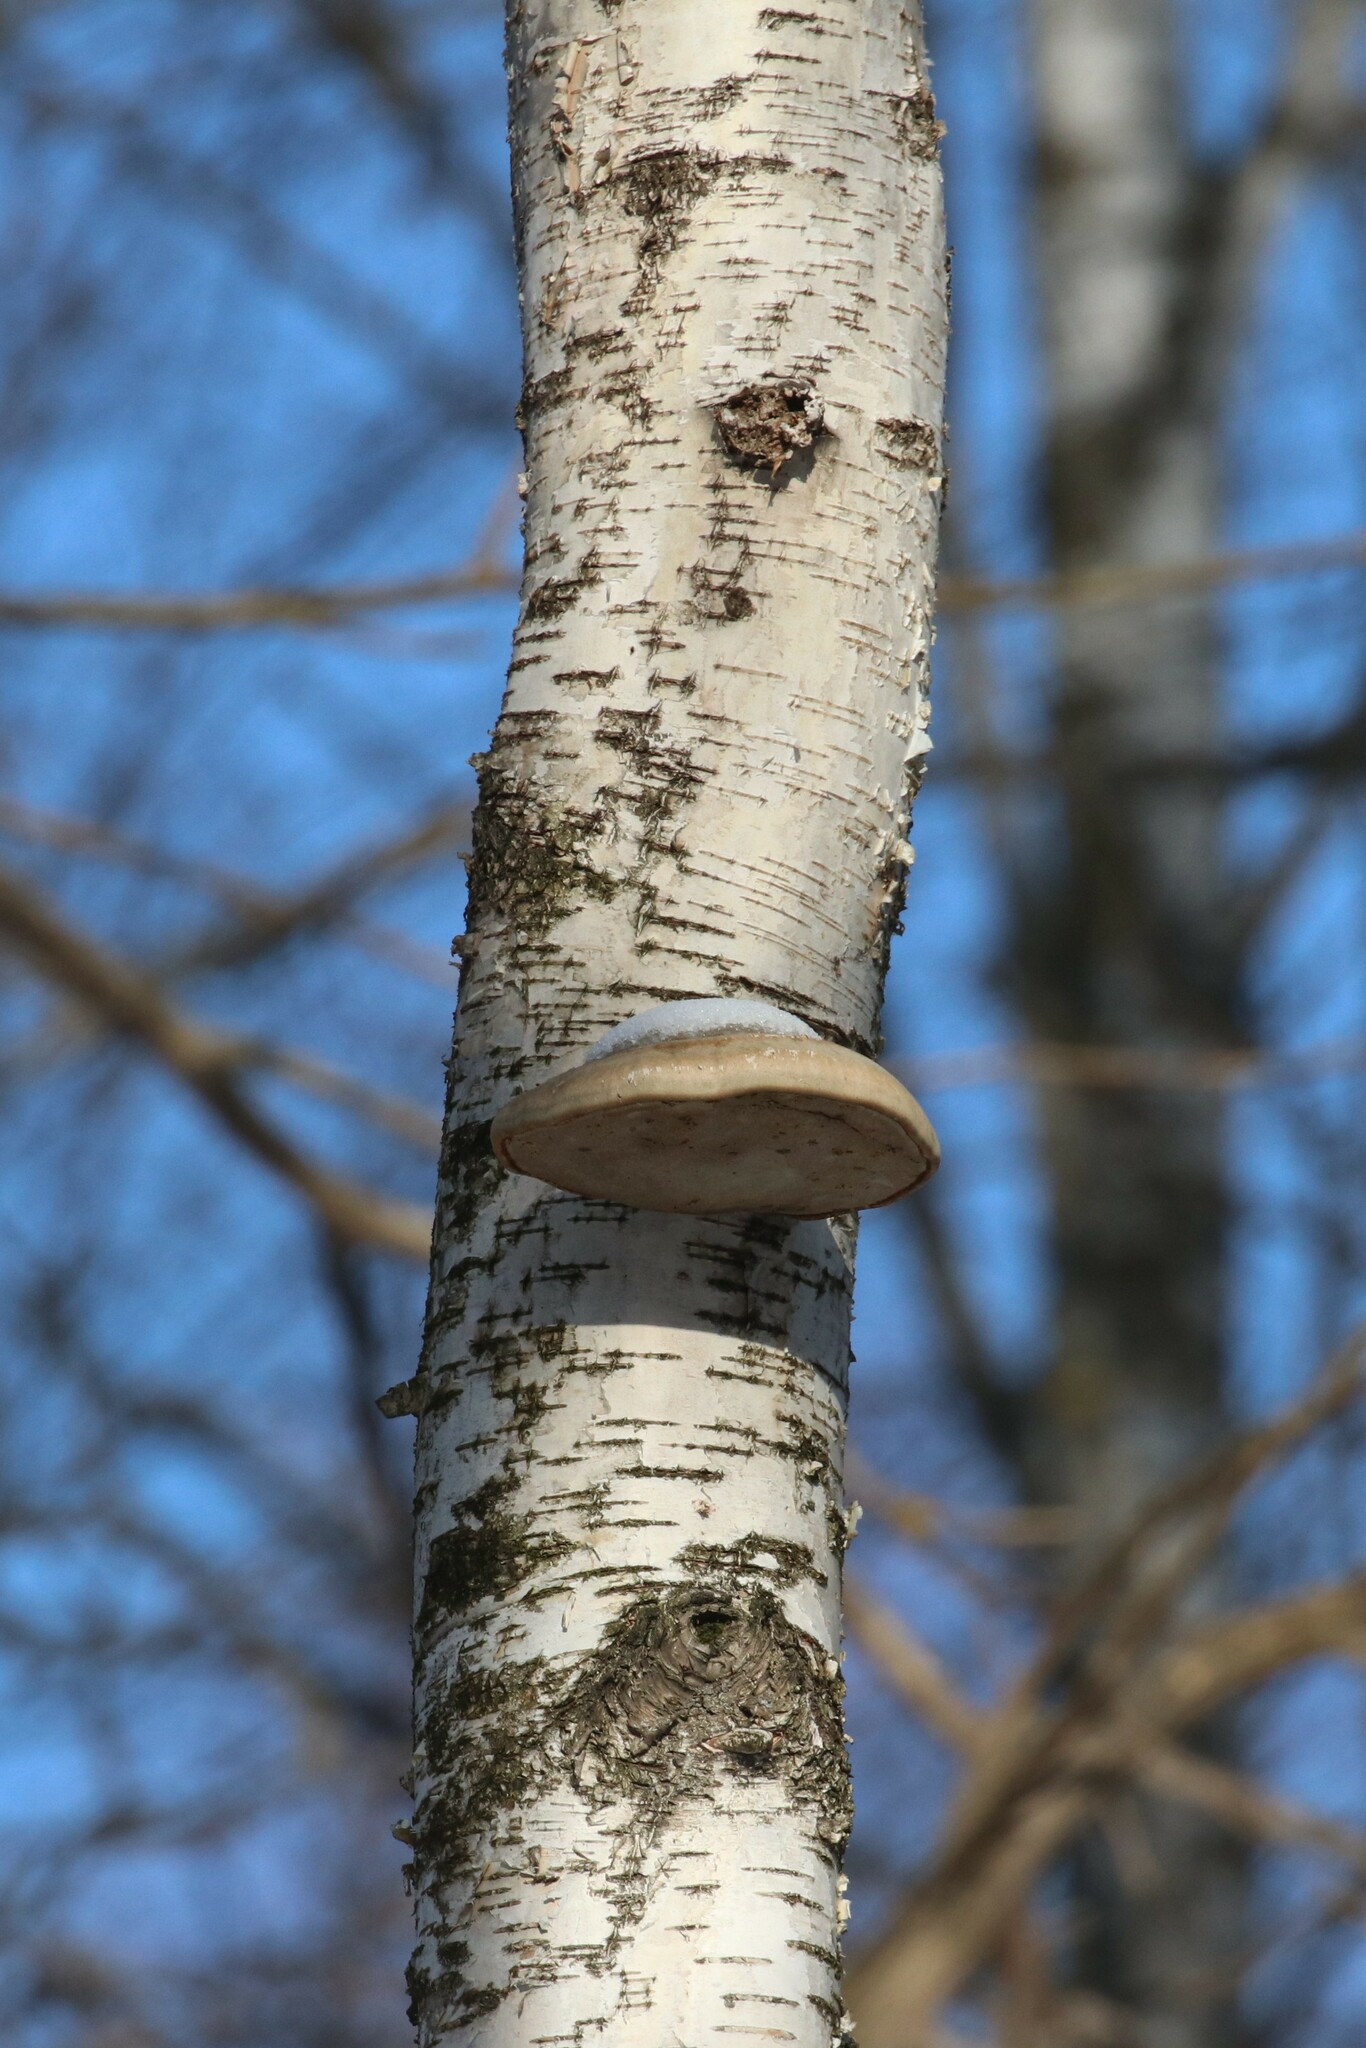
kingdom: Fungi
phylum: Basidiomycota
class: Agaricomycetes
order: Polyporales
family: Fomitopsidaceae
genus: Fomitopsis
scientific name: Fomitopsis betulina
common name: Birch polypore
